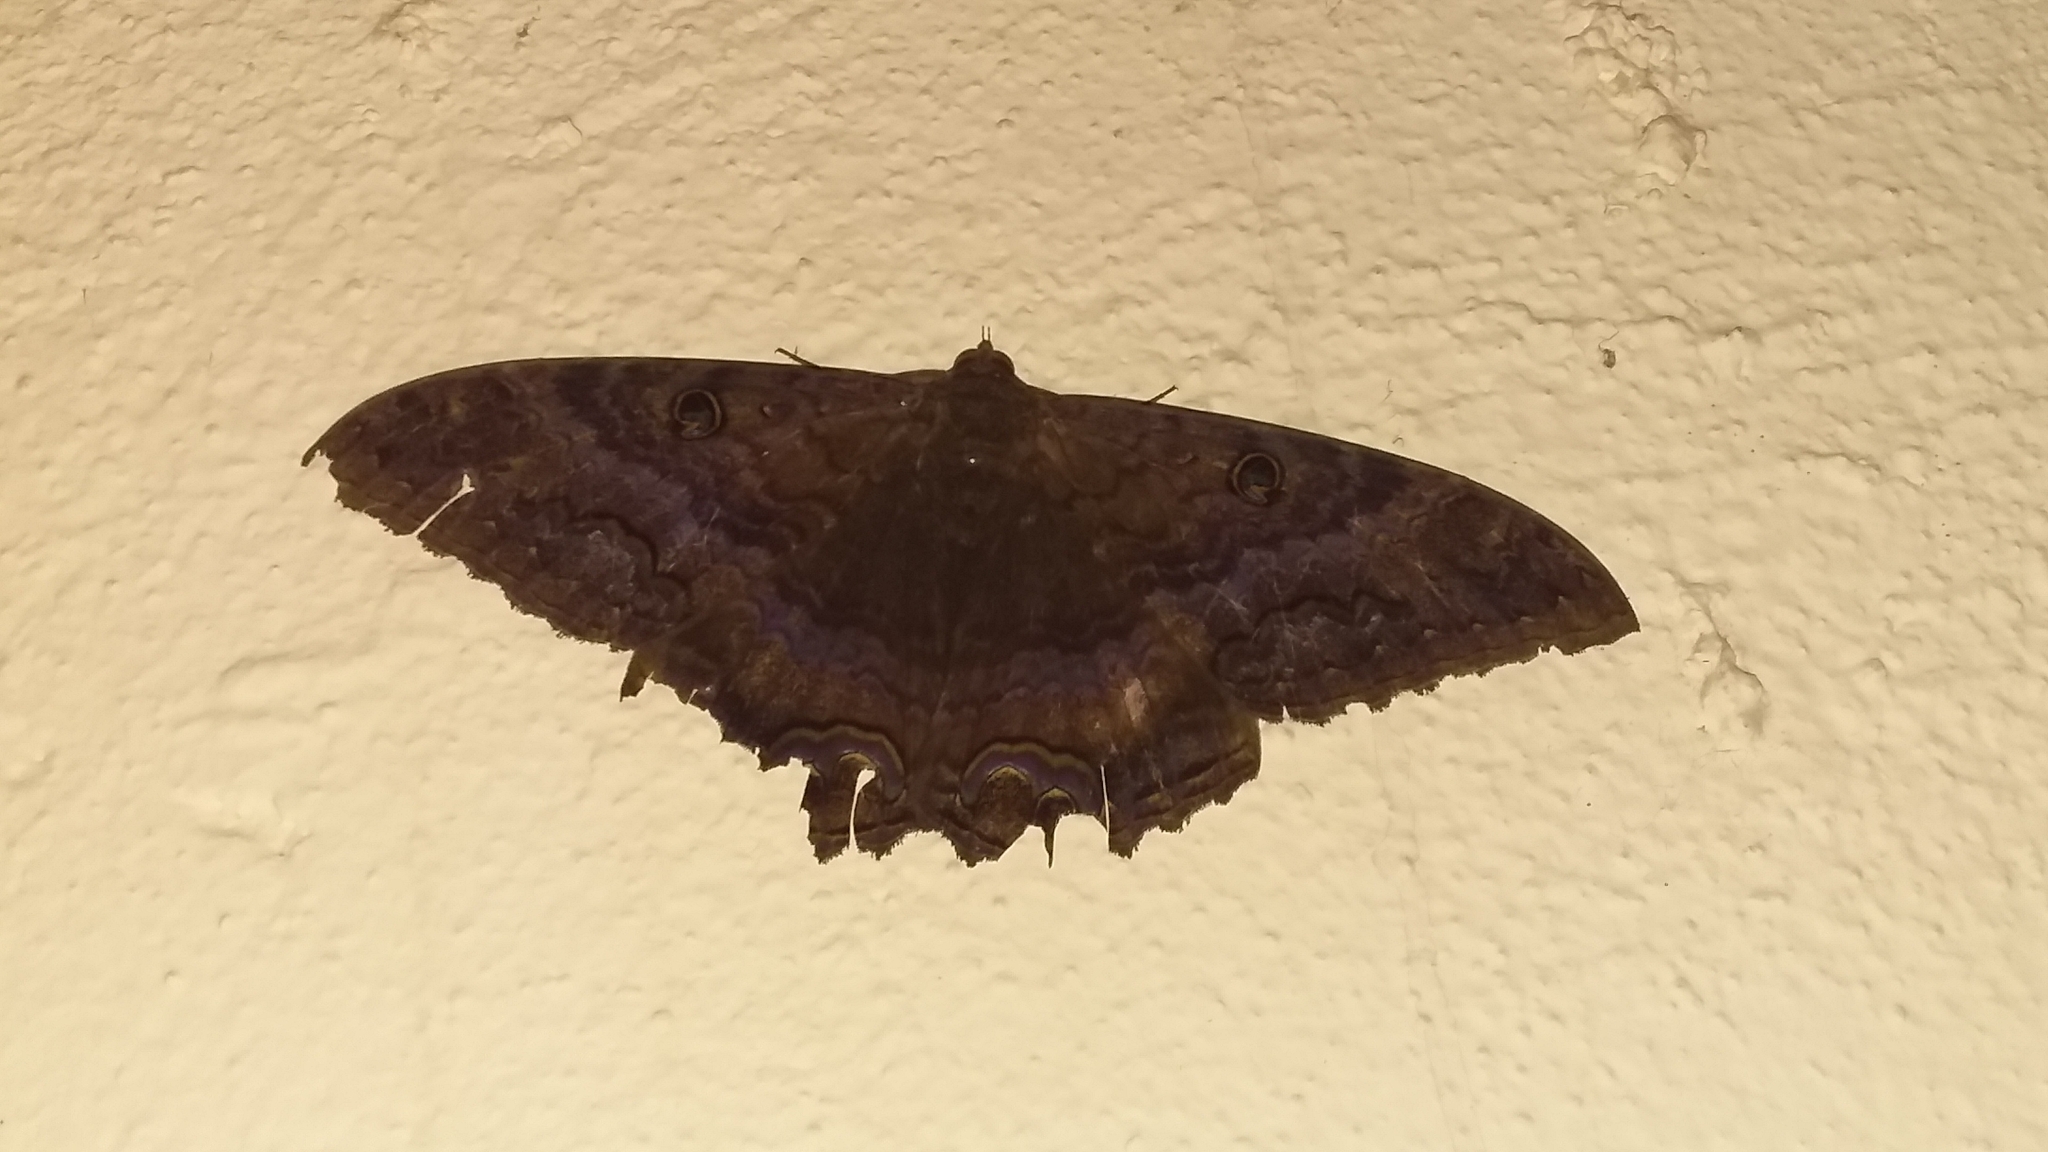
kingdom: Animalia
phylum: Arthropoda
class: Insecta
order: Lepidoptera
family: Erebidae
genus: Ascalapha
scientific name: Ascalapha odorata
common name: Black witch
